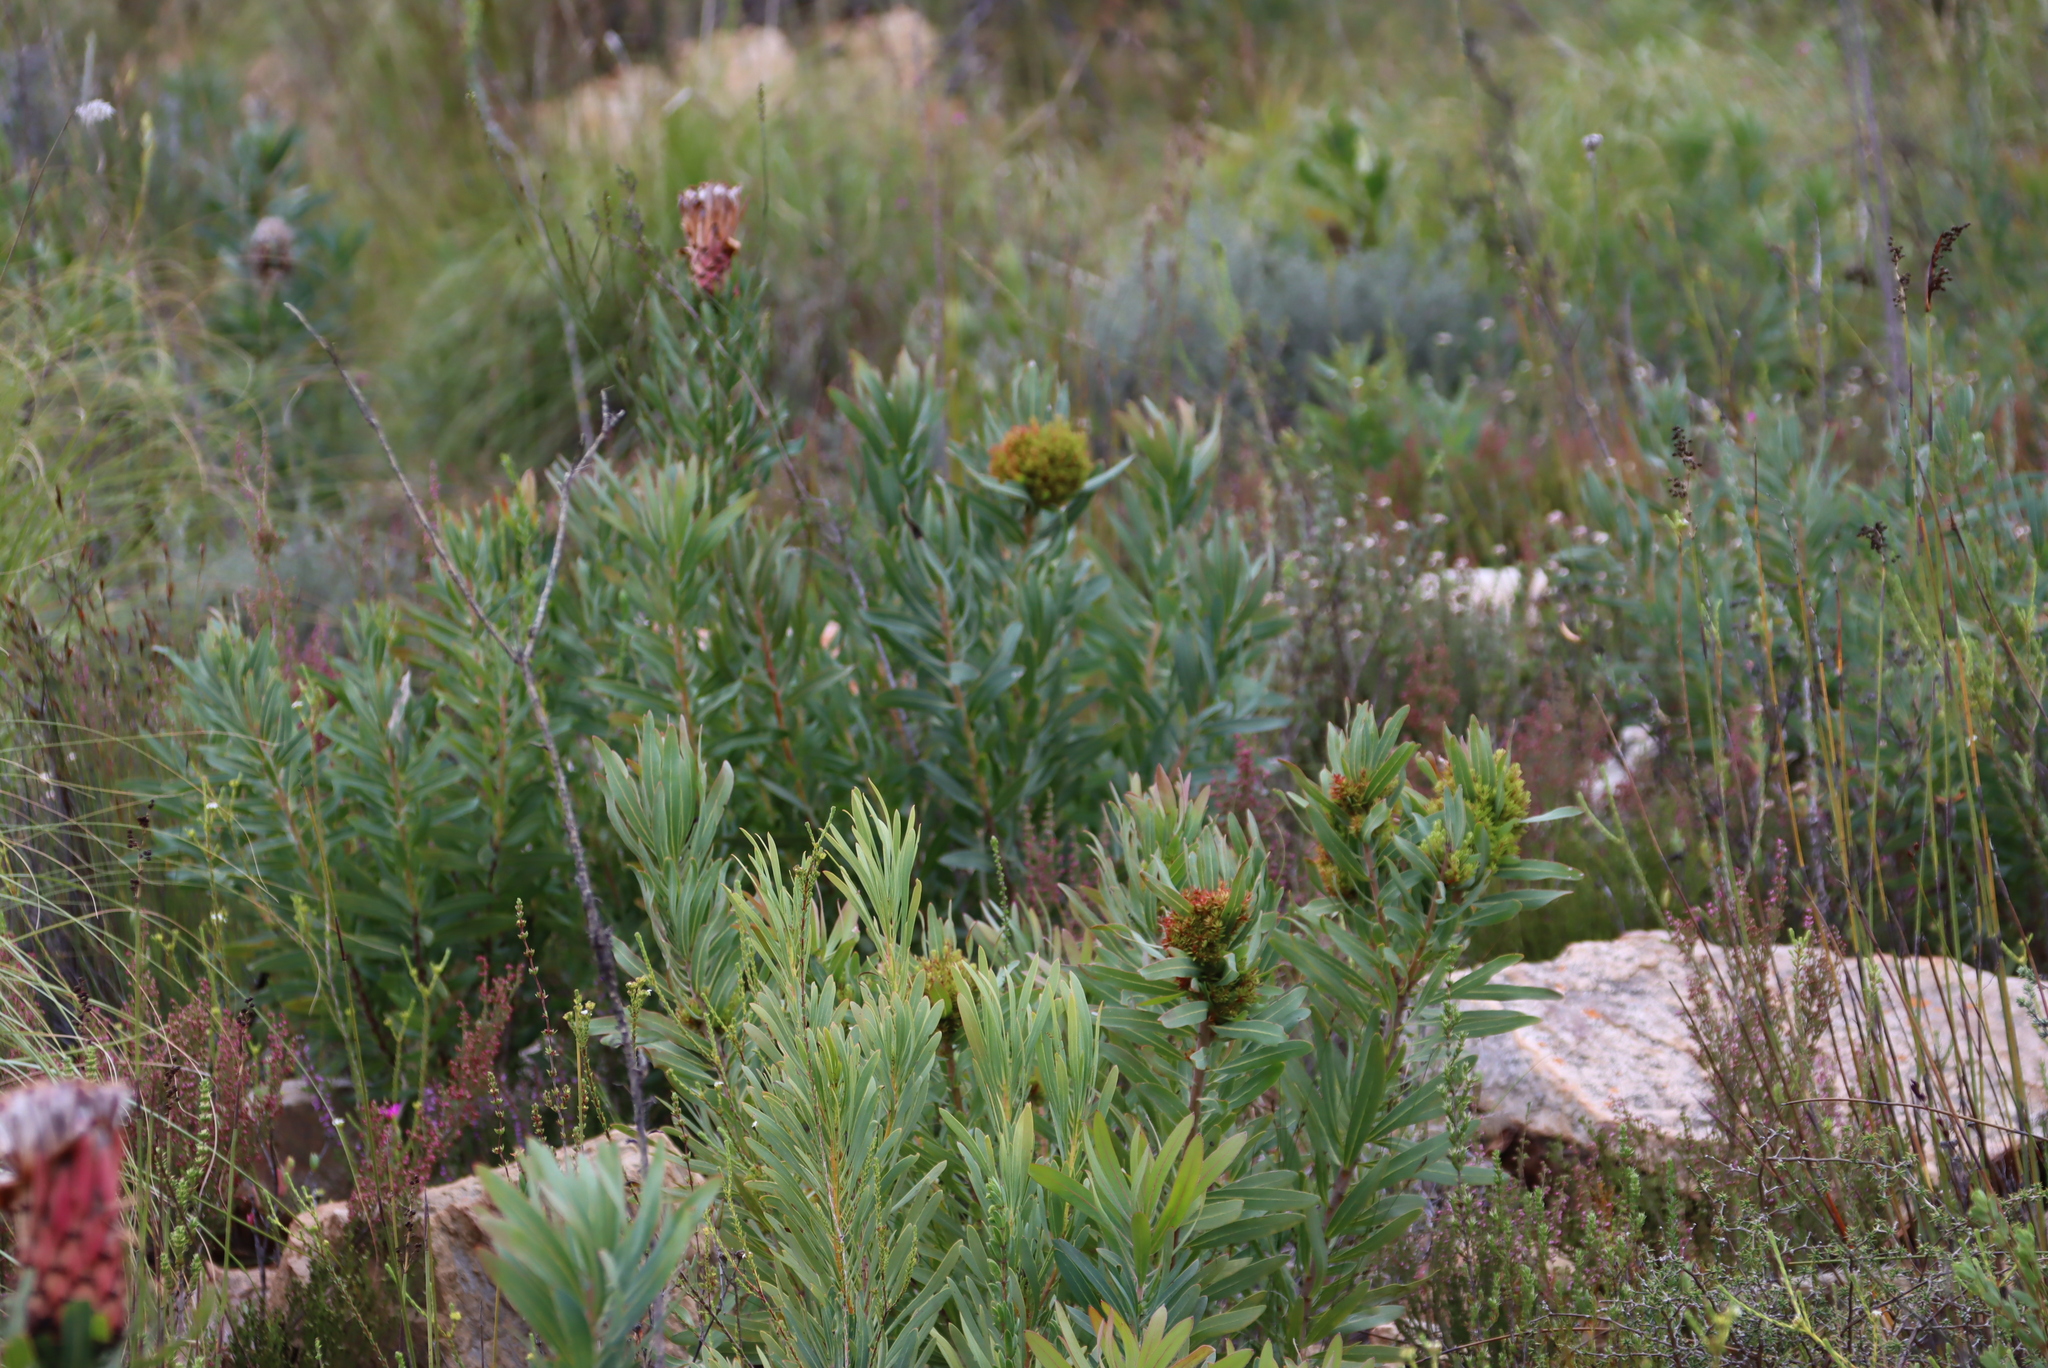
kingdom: Bacteria
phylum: Firmicutes
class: Bacilli
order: Acholeplasmatales
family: Acholeplasmataceae
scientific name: Acholeplasmataceae
